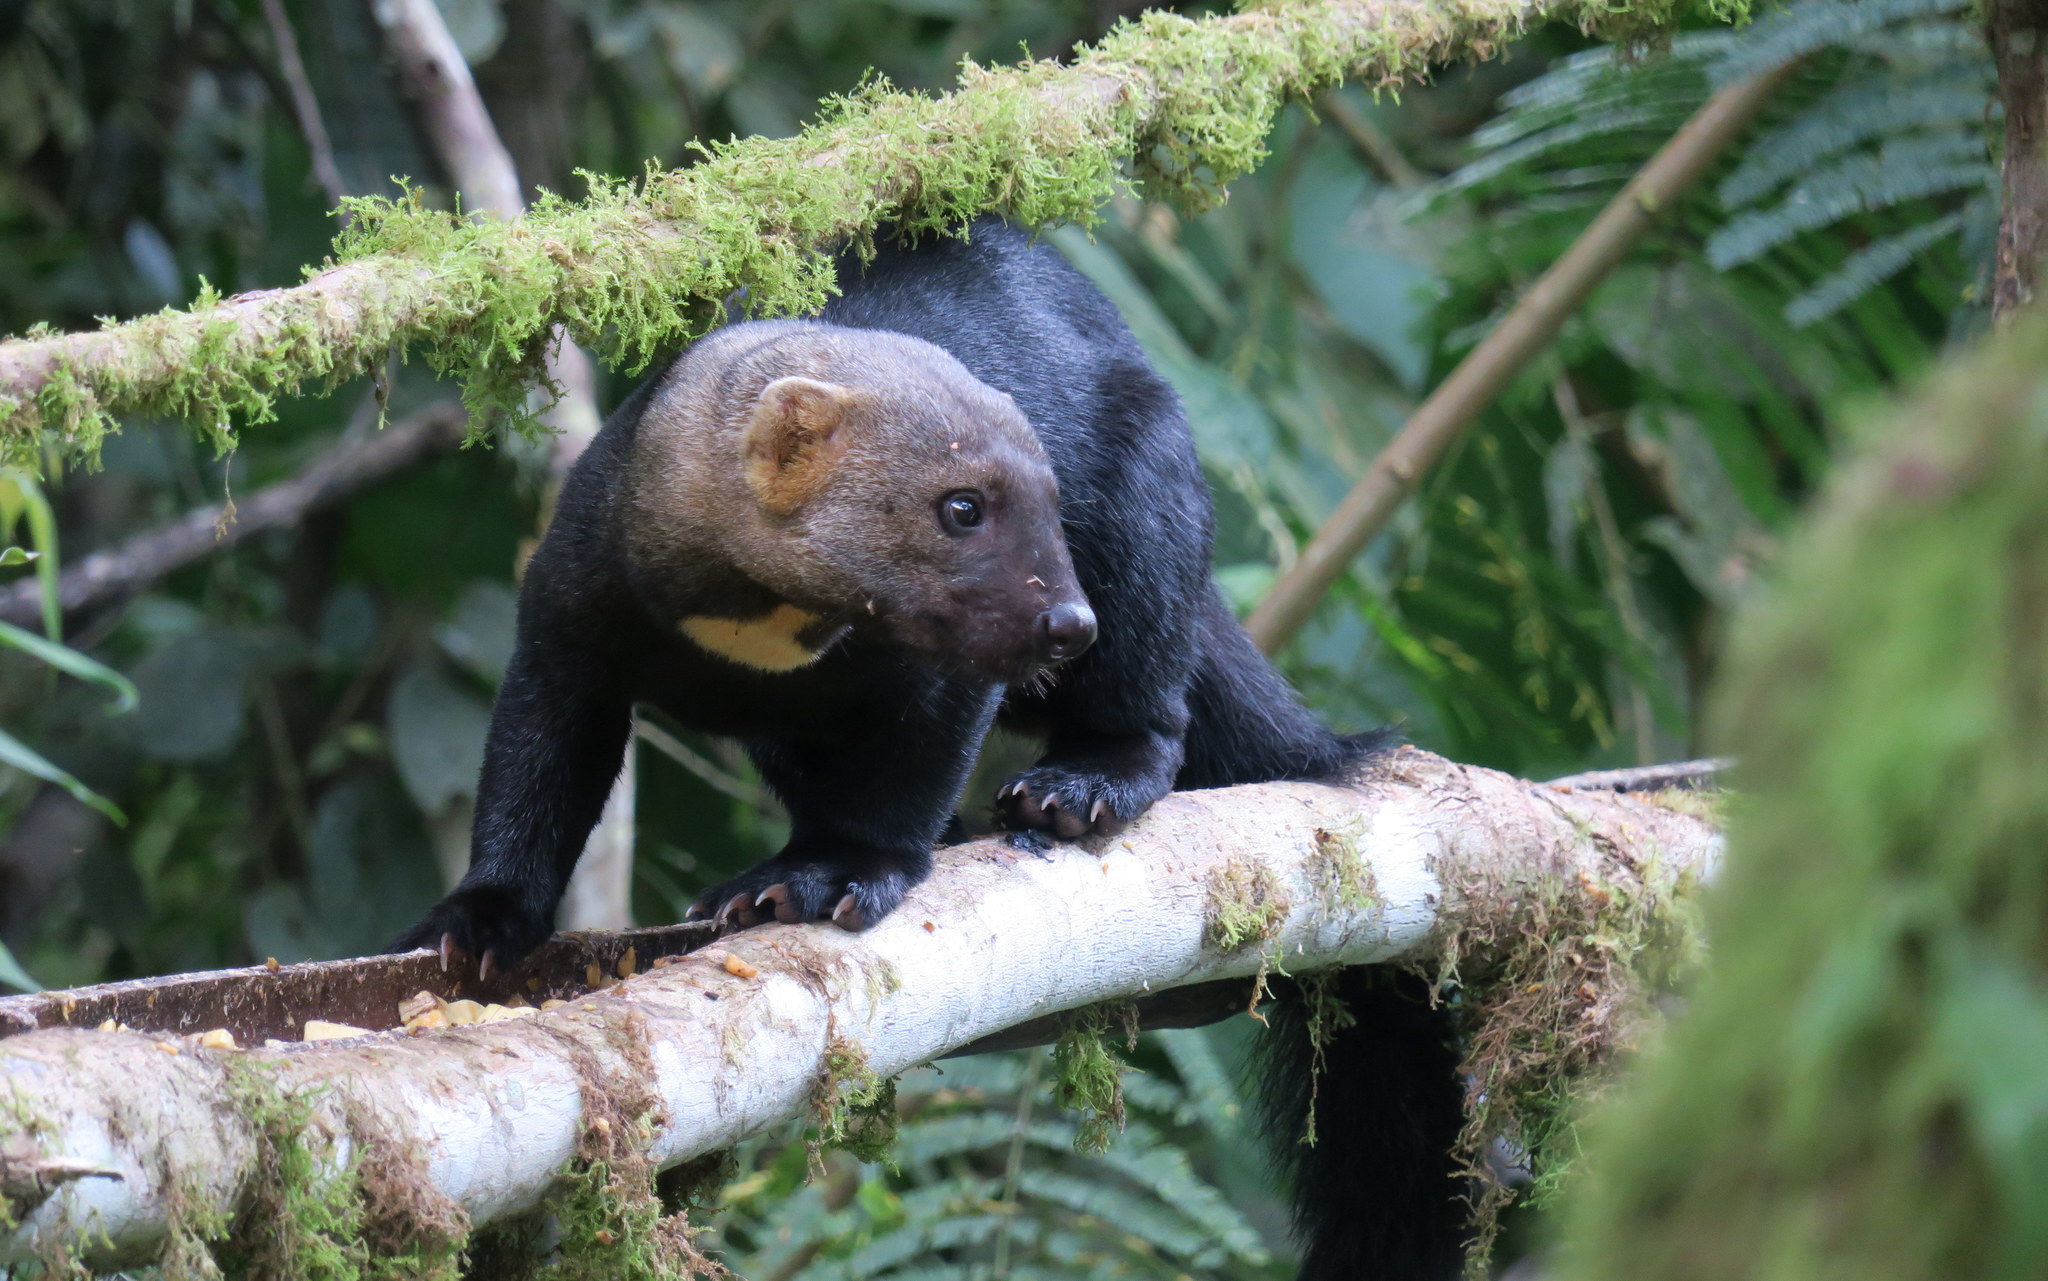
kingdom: Animalia
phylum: Chordata
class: Mammalia
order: Carnivora
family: Mustelidae
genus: Eira
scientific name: Eira barbara
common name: Tayra
